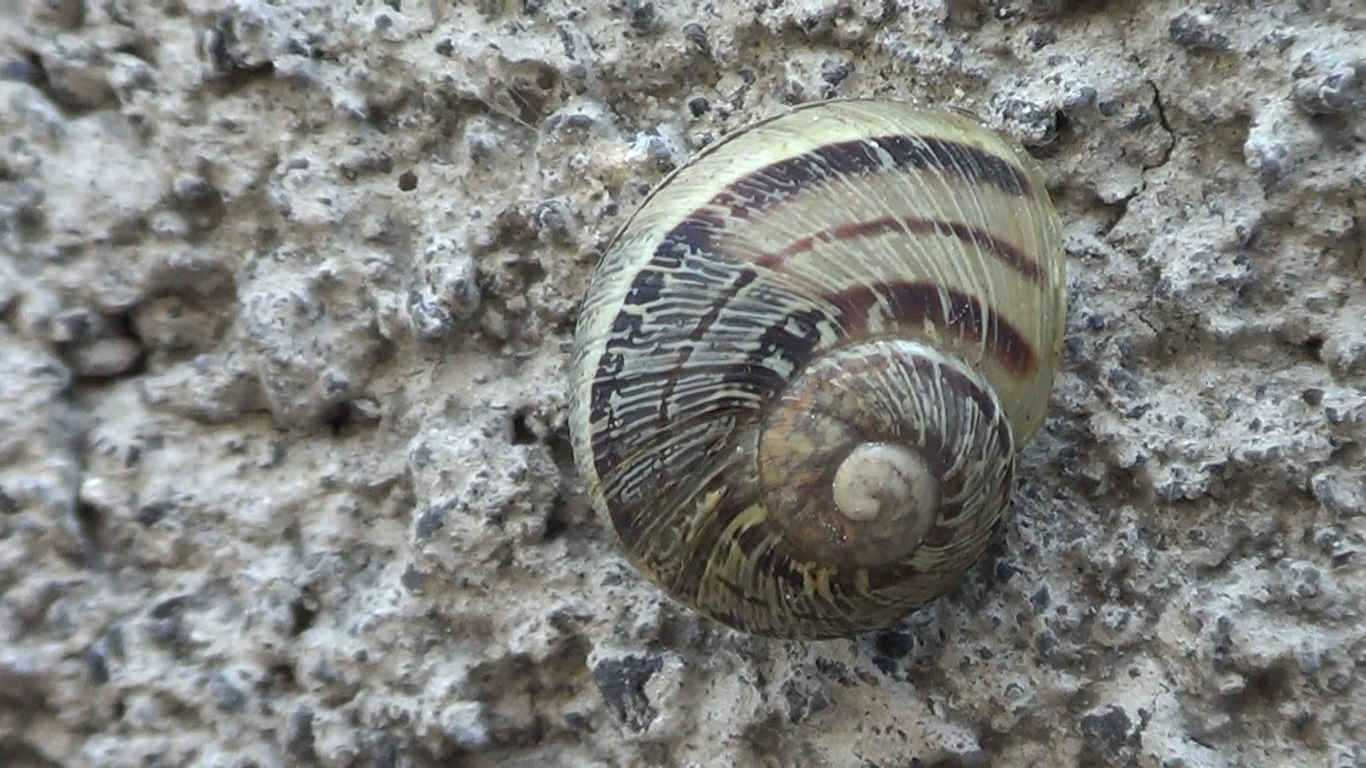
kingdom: Animalia
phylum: Mollusca
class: Gastropoda
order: Stylommatophora
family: Helicidae
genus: Cornu
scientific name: Cornu aspersum
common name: Brown garden snail
